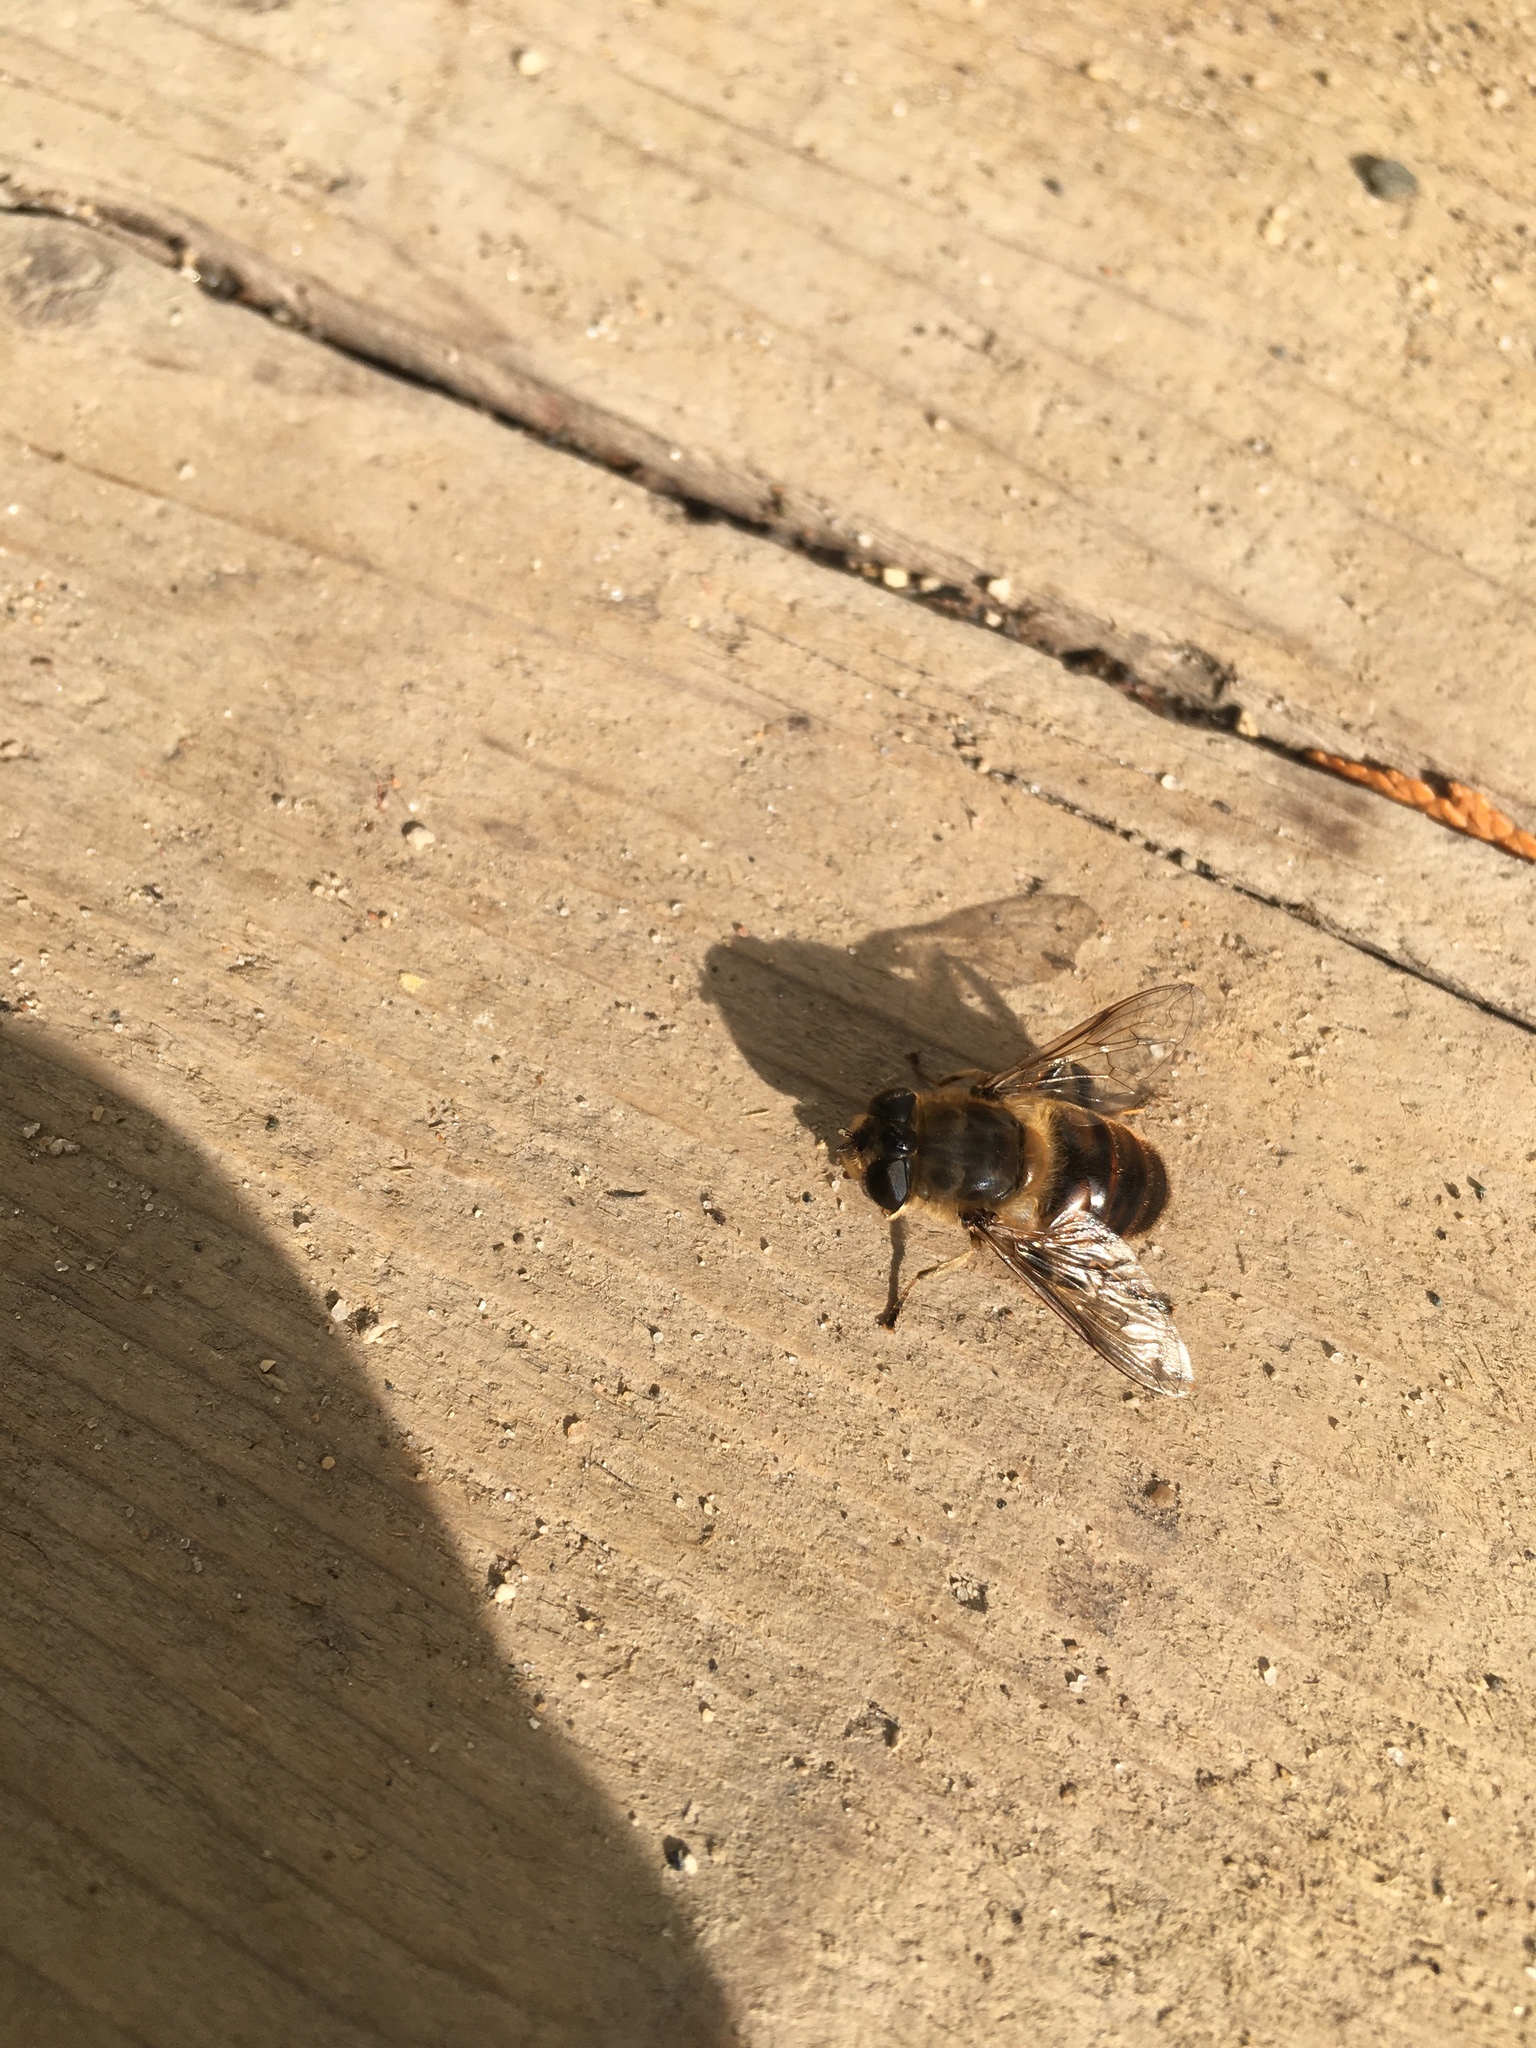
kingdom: Animalia
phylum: Arthropoda
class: Insecta
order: Diptera
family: Syrphidae
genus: Eristalis
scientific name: Eristalis tenax
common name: Drone fly
